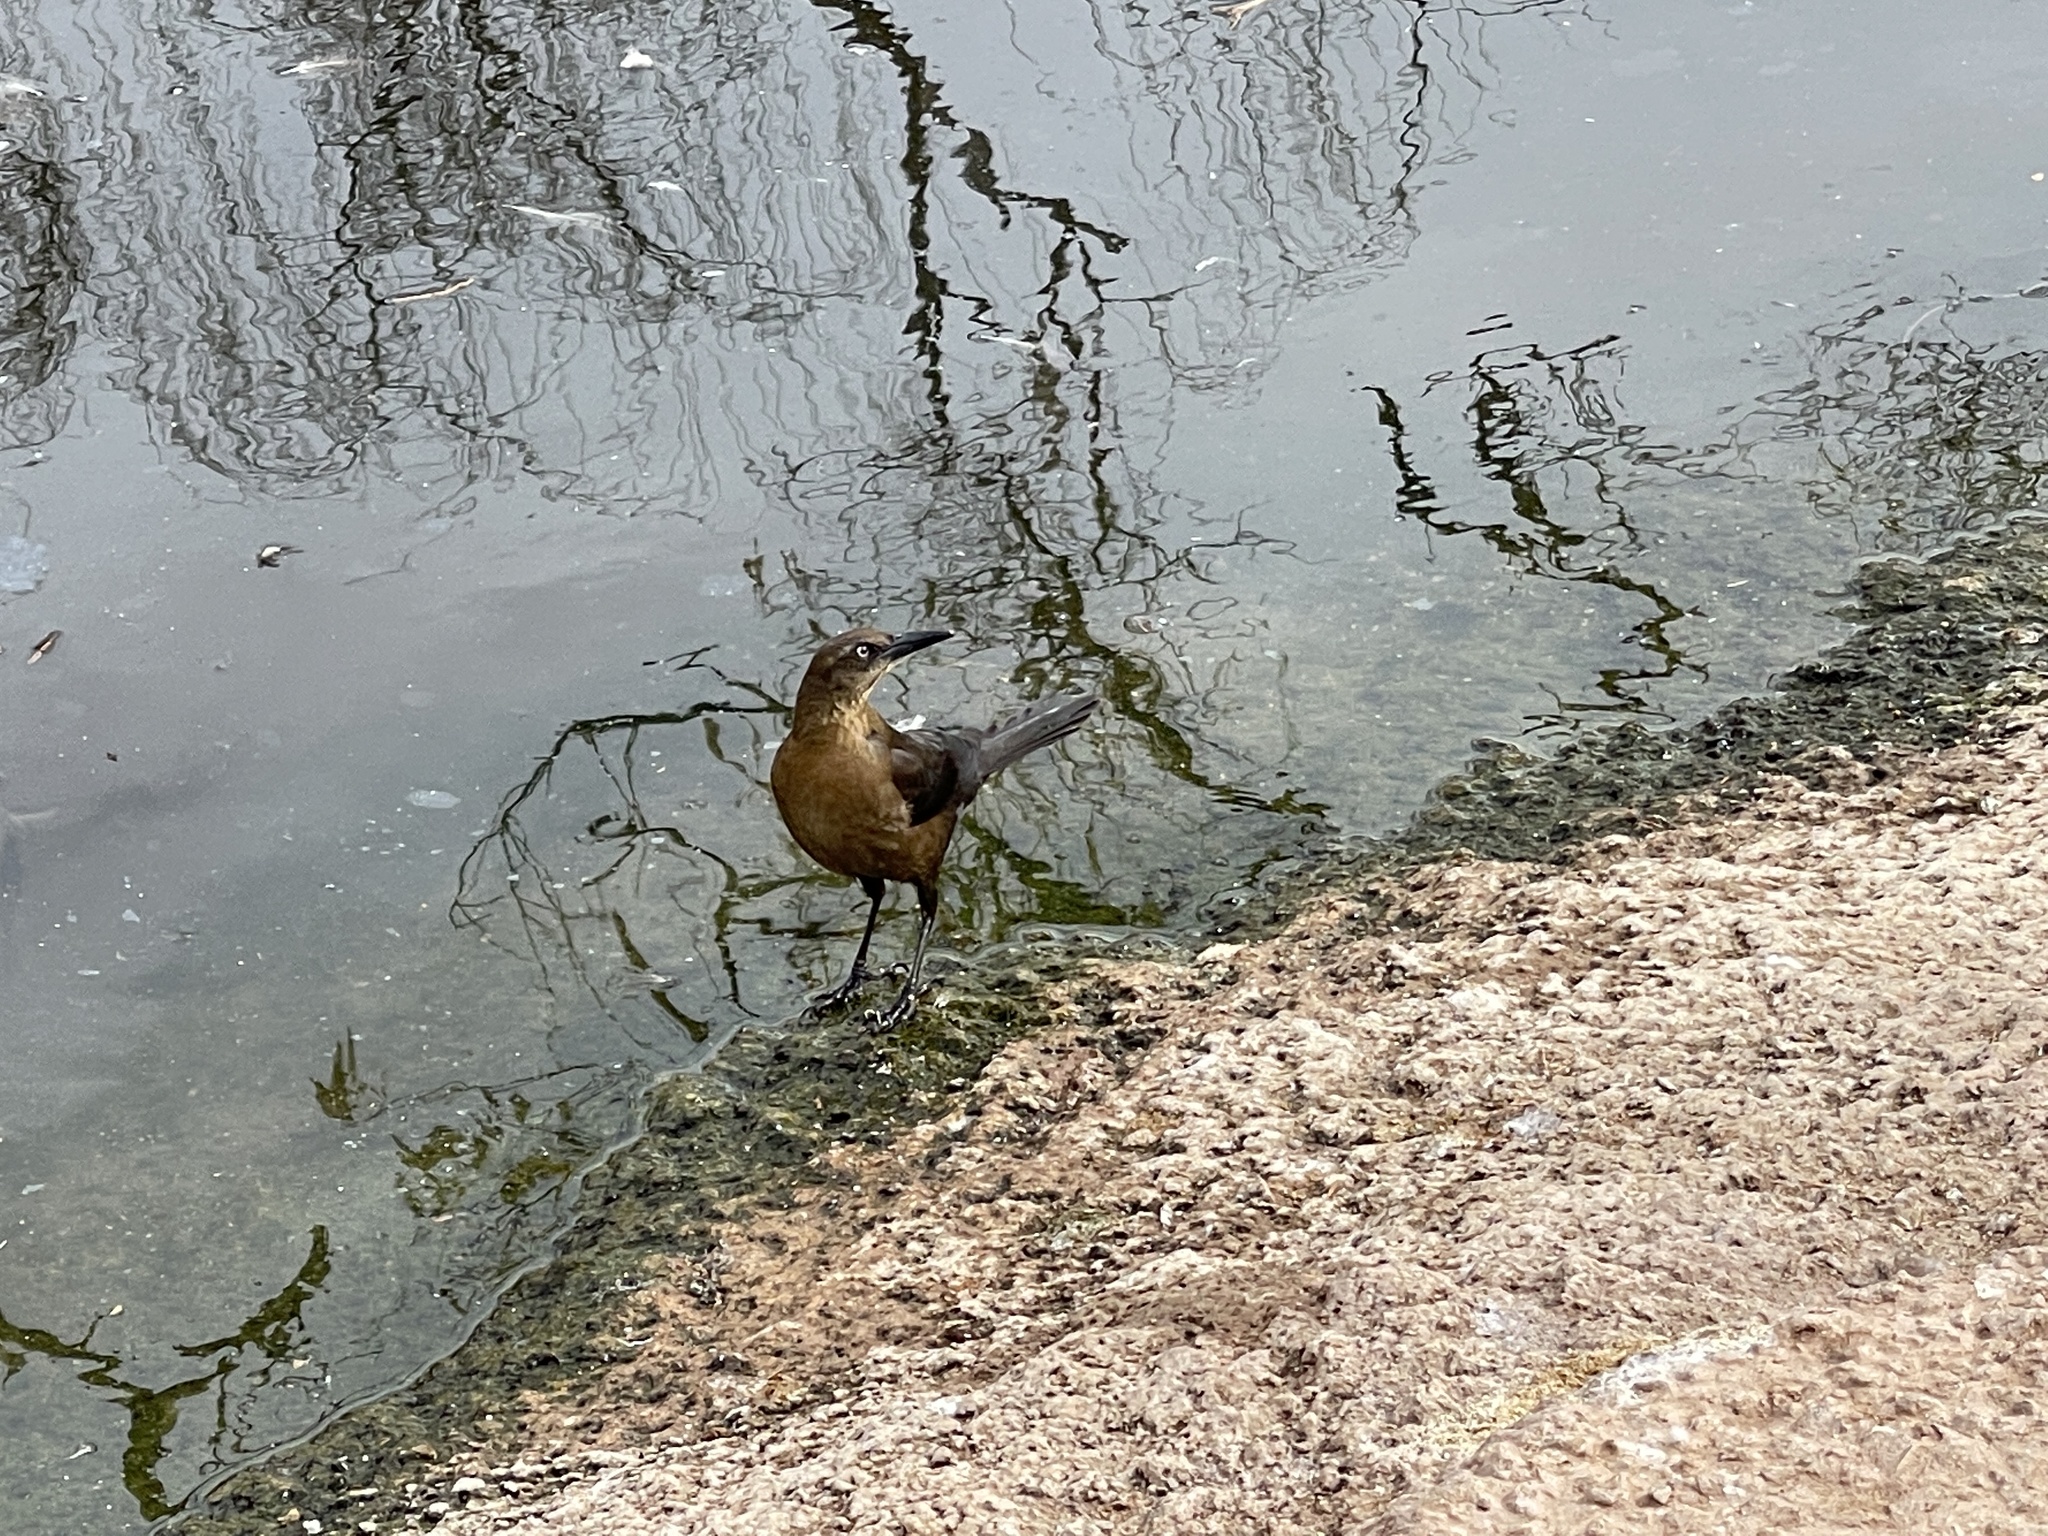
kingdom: Animalia
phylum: Chordata
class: Aves
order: Passeriformes
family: Icteridae
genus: Quiscalus
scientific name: Quiscalus mexicanus
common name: Great-tailed grackle
